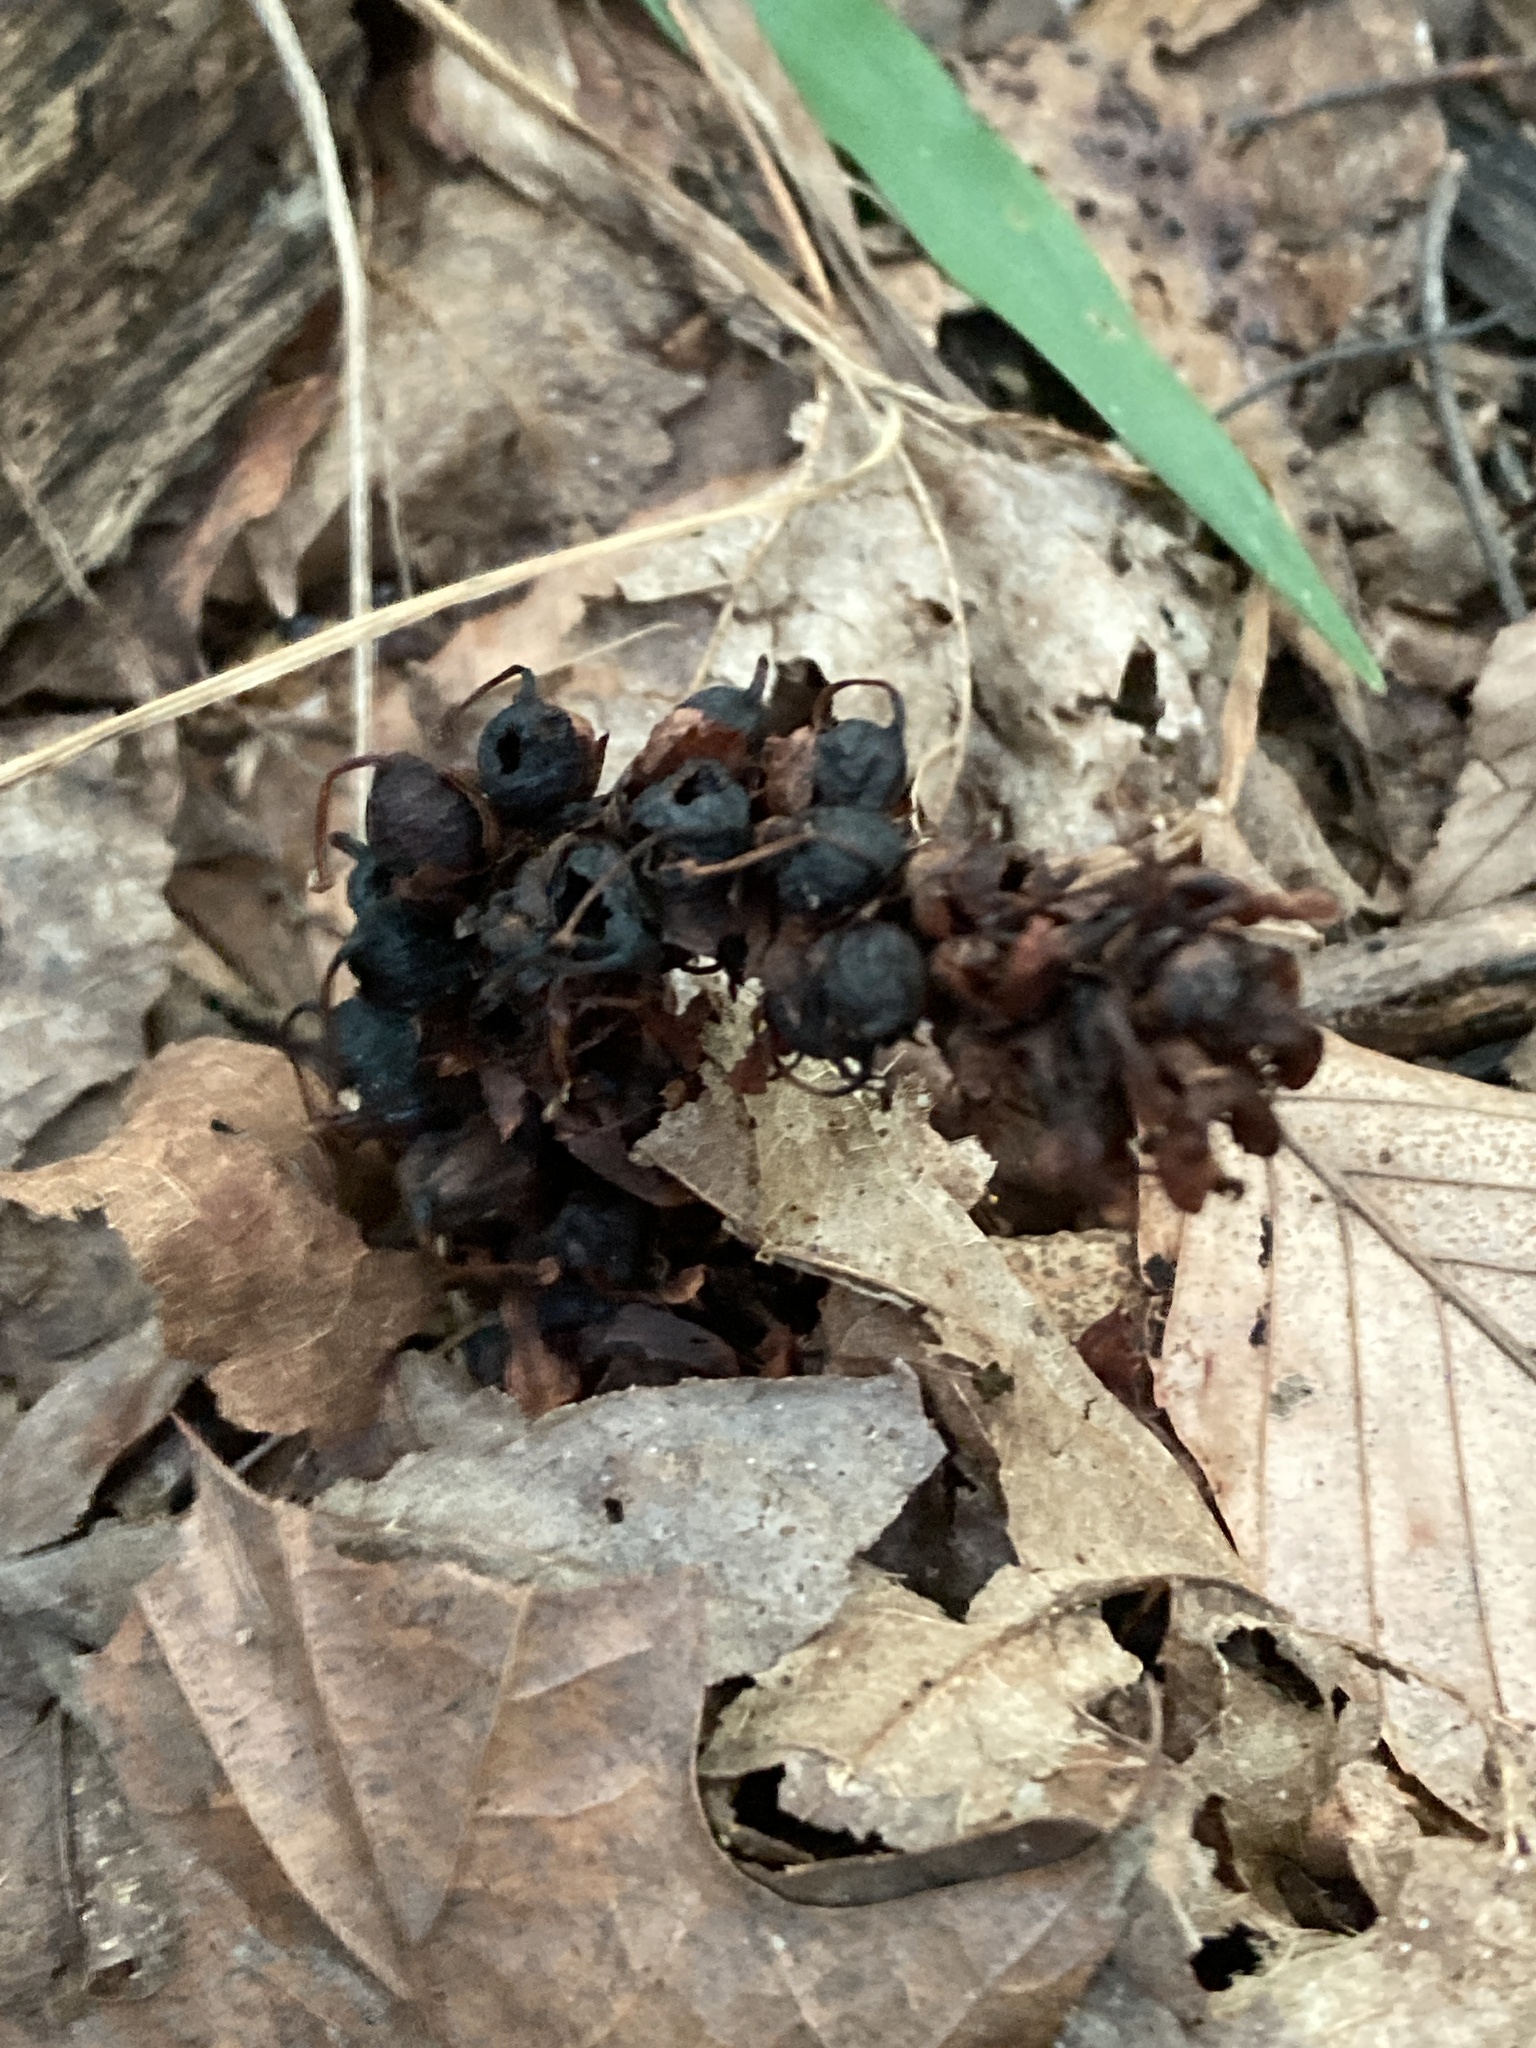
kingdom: Plantae
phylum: Tracheophyta
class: Magnoliopsida
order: Lamiales
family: Orobanchaceae
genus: Conopholis
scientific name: Conopholis americana
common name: American cancer-root
